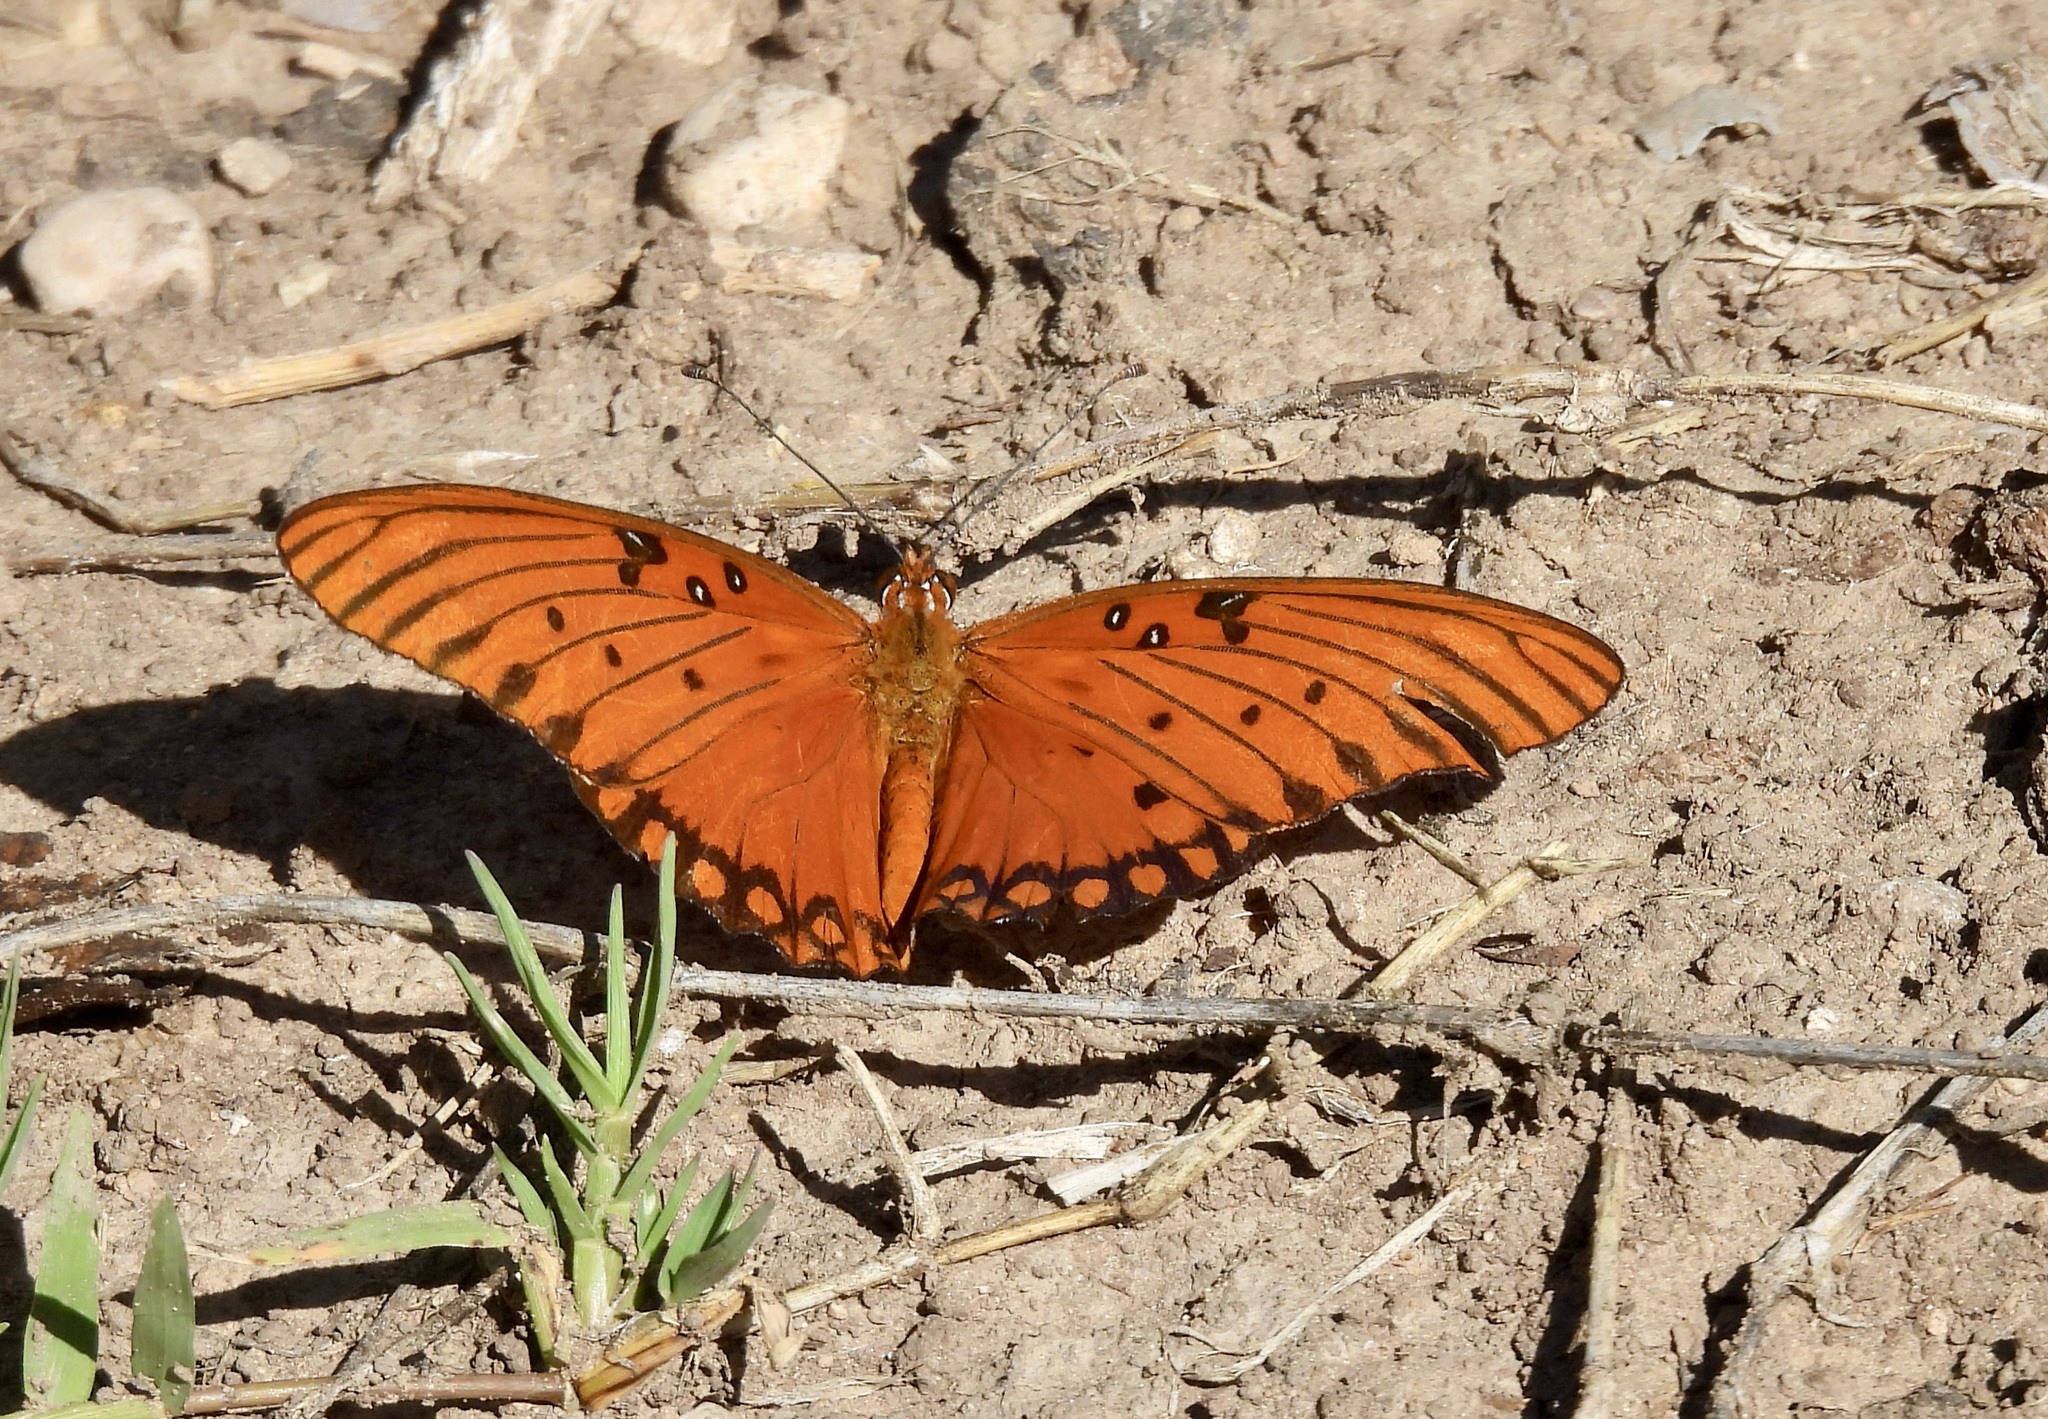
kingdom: Animalia
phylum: Arthropoda
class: Insecta
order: Lepidoptera
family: Nymphalidae
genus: Dione
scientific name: Dione vanillae
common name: Gulf fritillary
